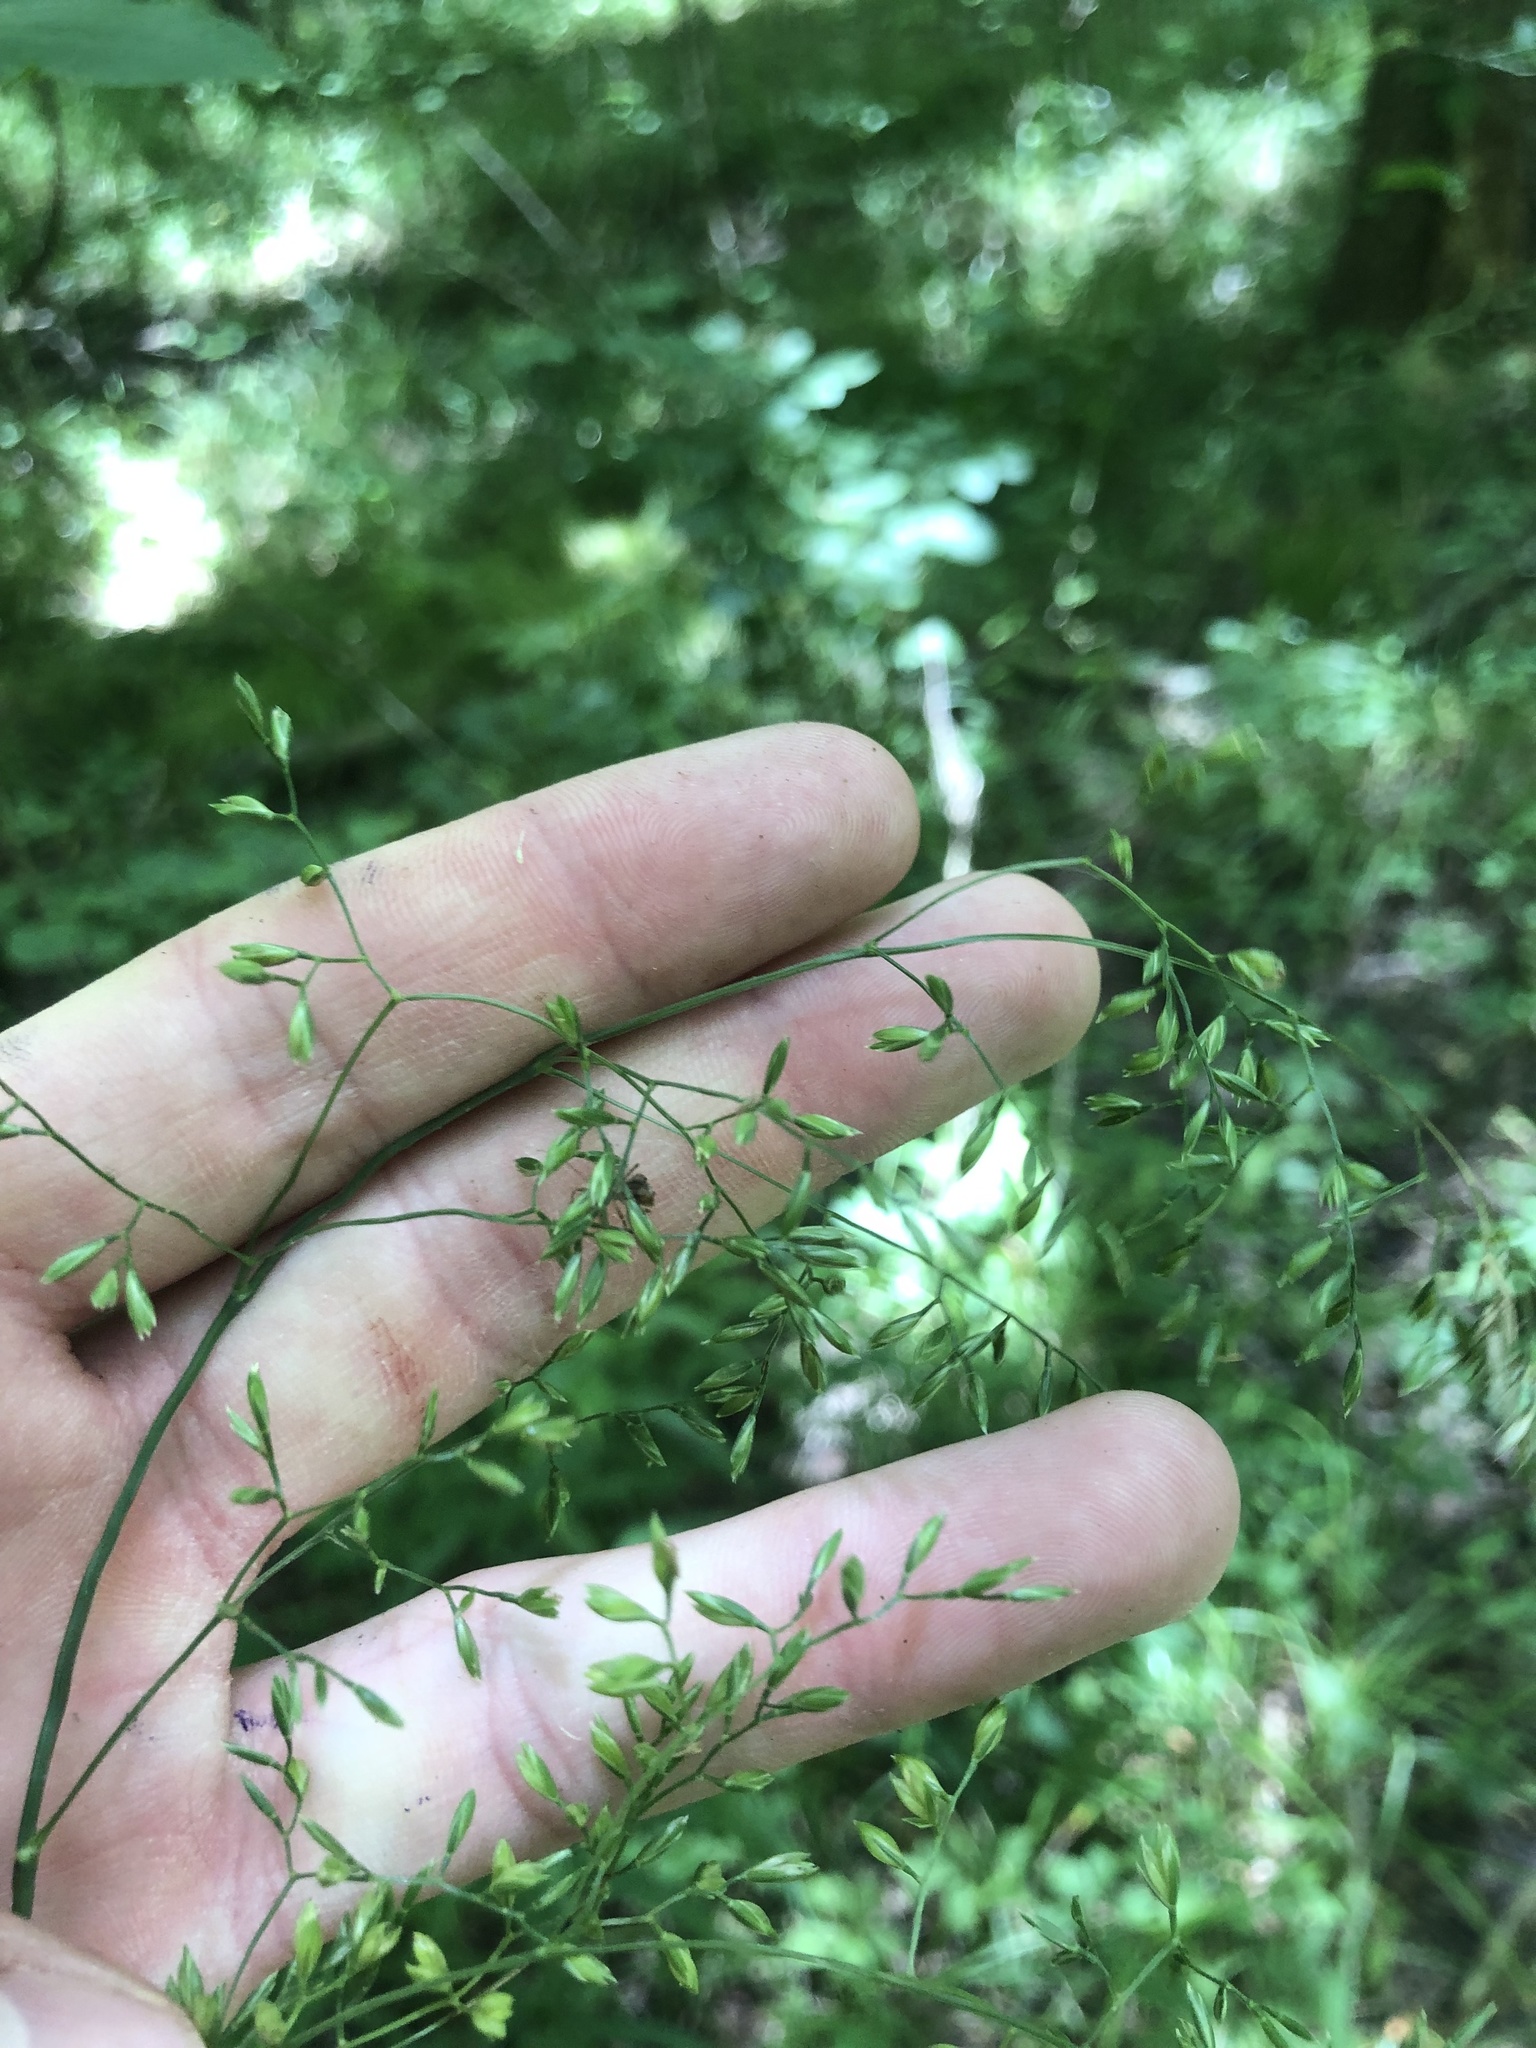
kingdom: Plantae
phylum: Tracheophyta
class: Liliopsida
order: Poales
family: Poaceae
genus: Festuca
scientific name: Festuca paradoxa
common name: Cluster fescue
